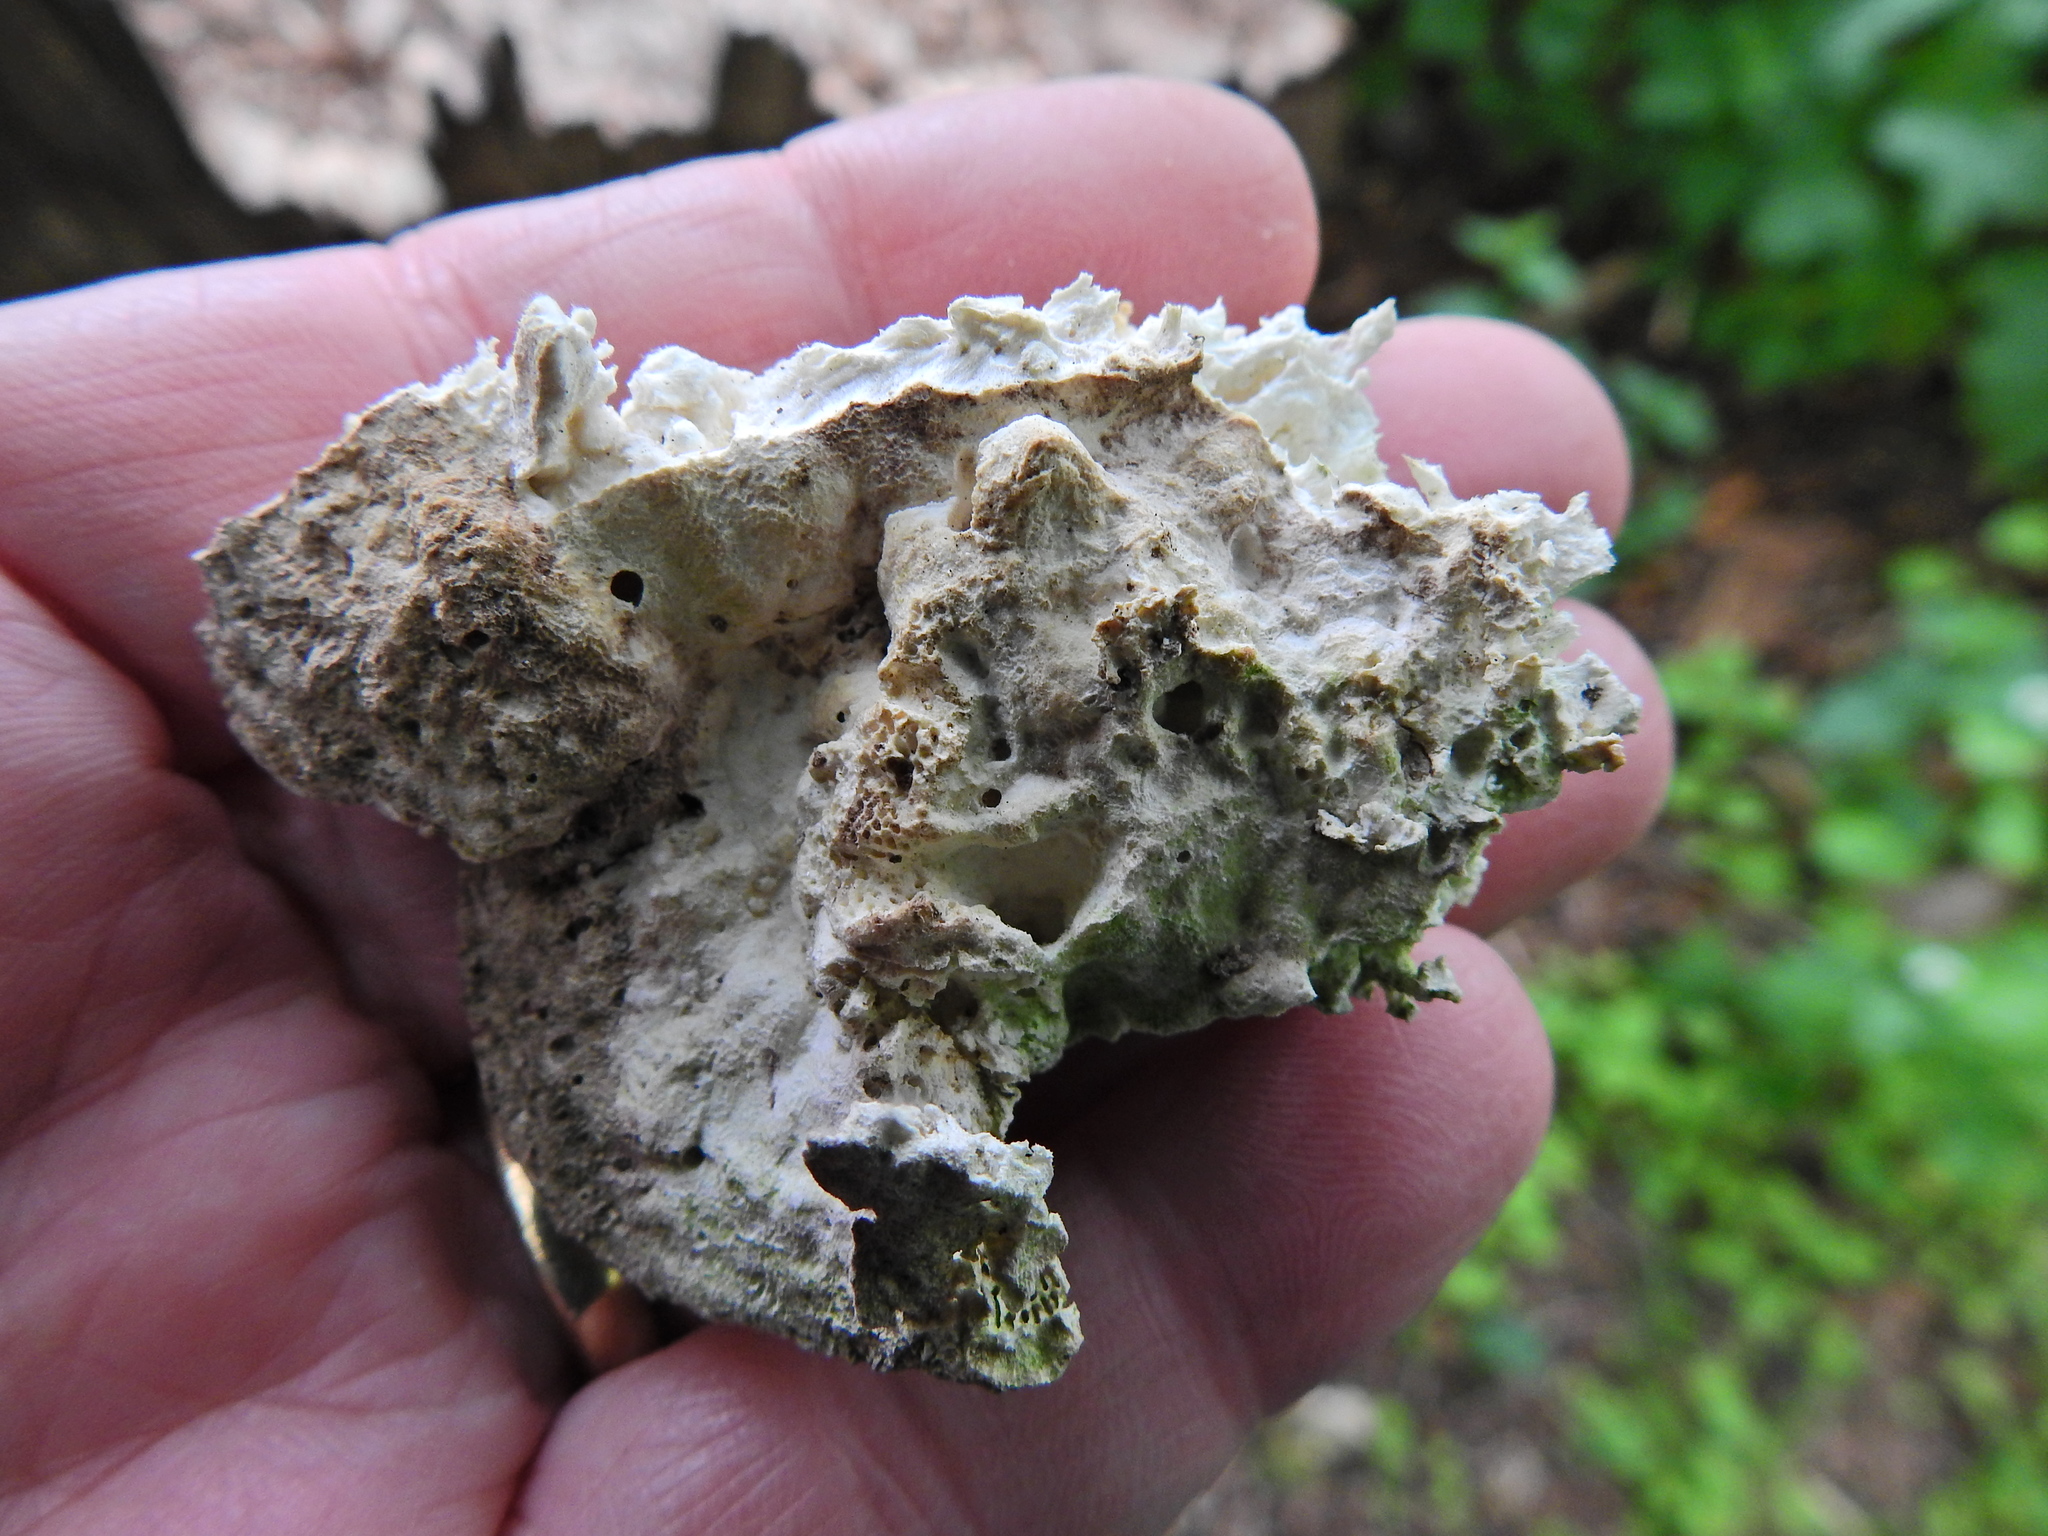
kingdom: Fungi
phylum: Basidiomycota
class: Agaricomycetes
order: Polyporales
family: Polyporaceae
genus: Trametes
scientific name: Trametes gibbosa
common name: Lumpy bracket
